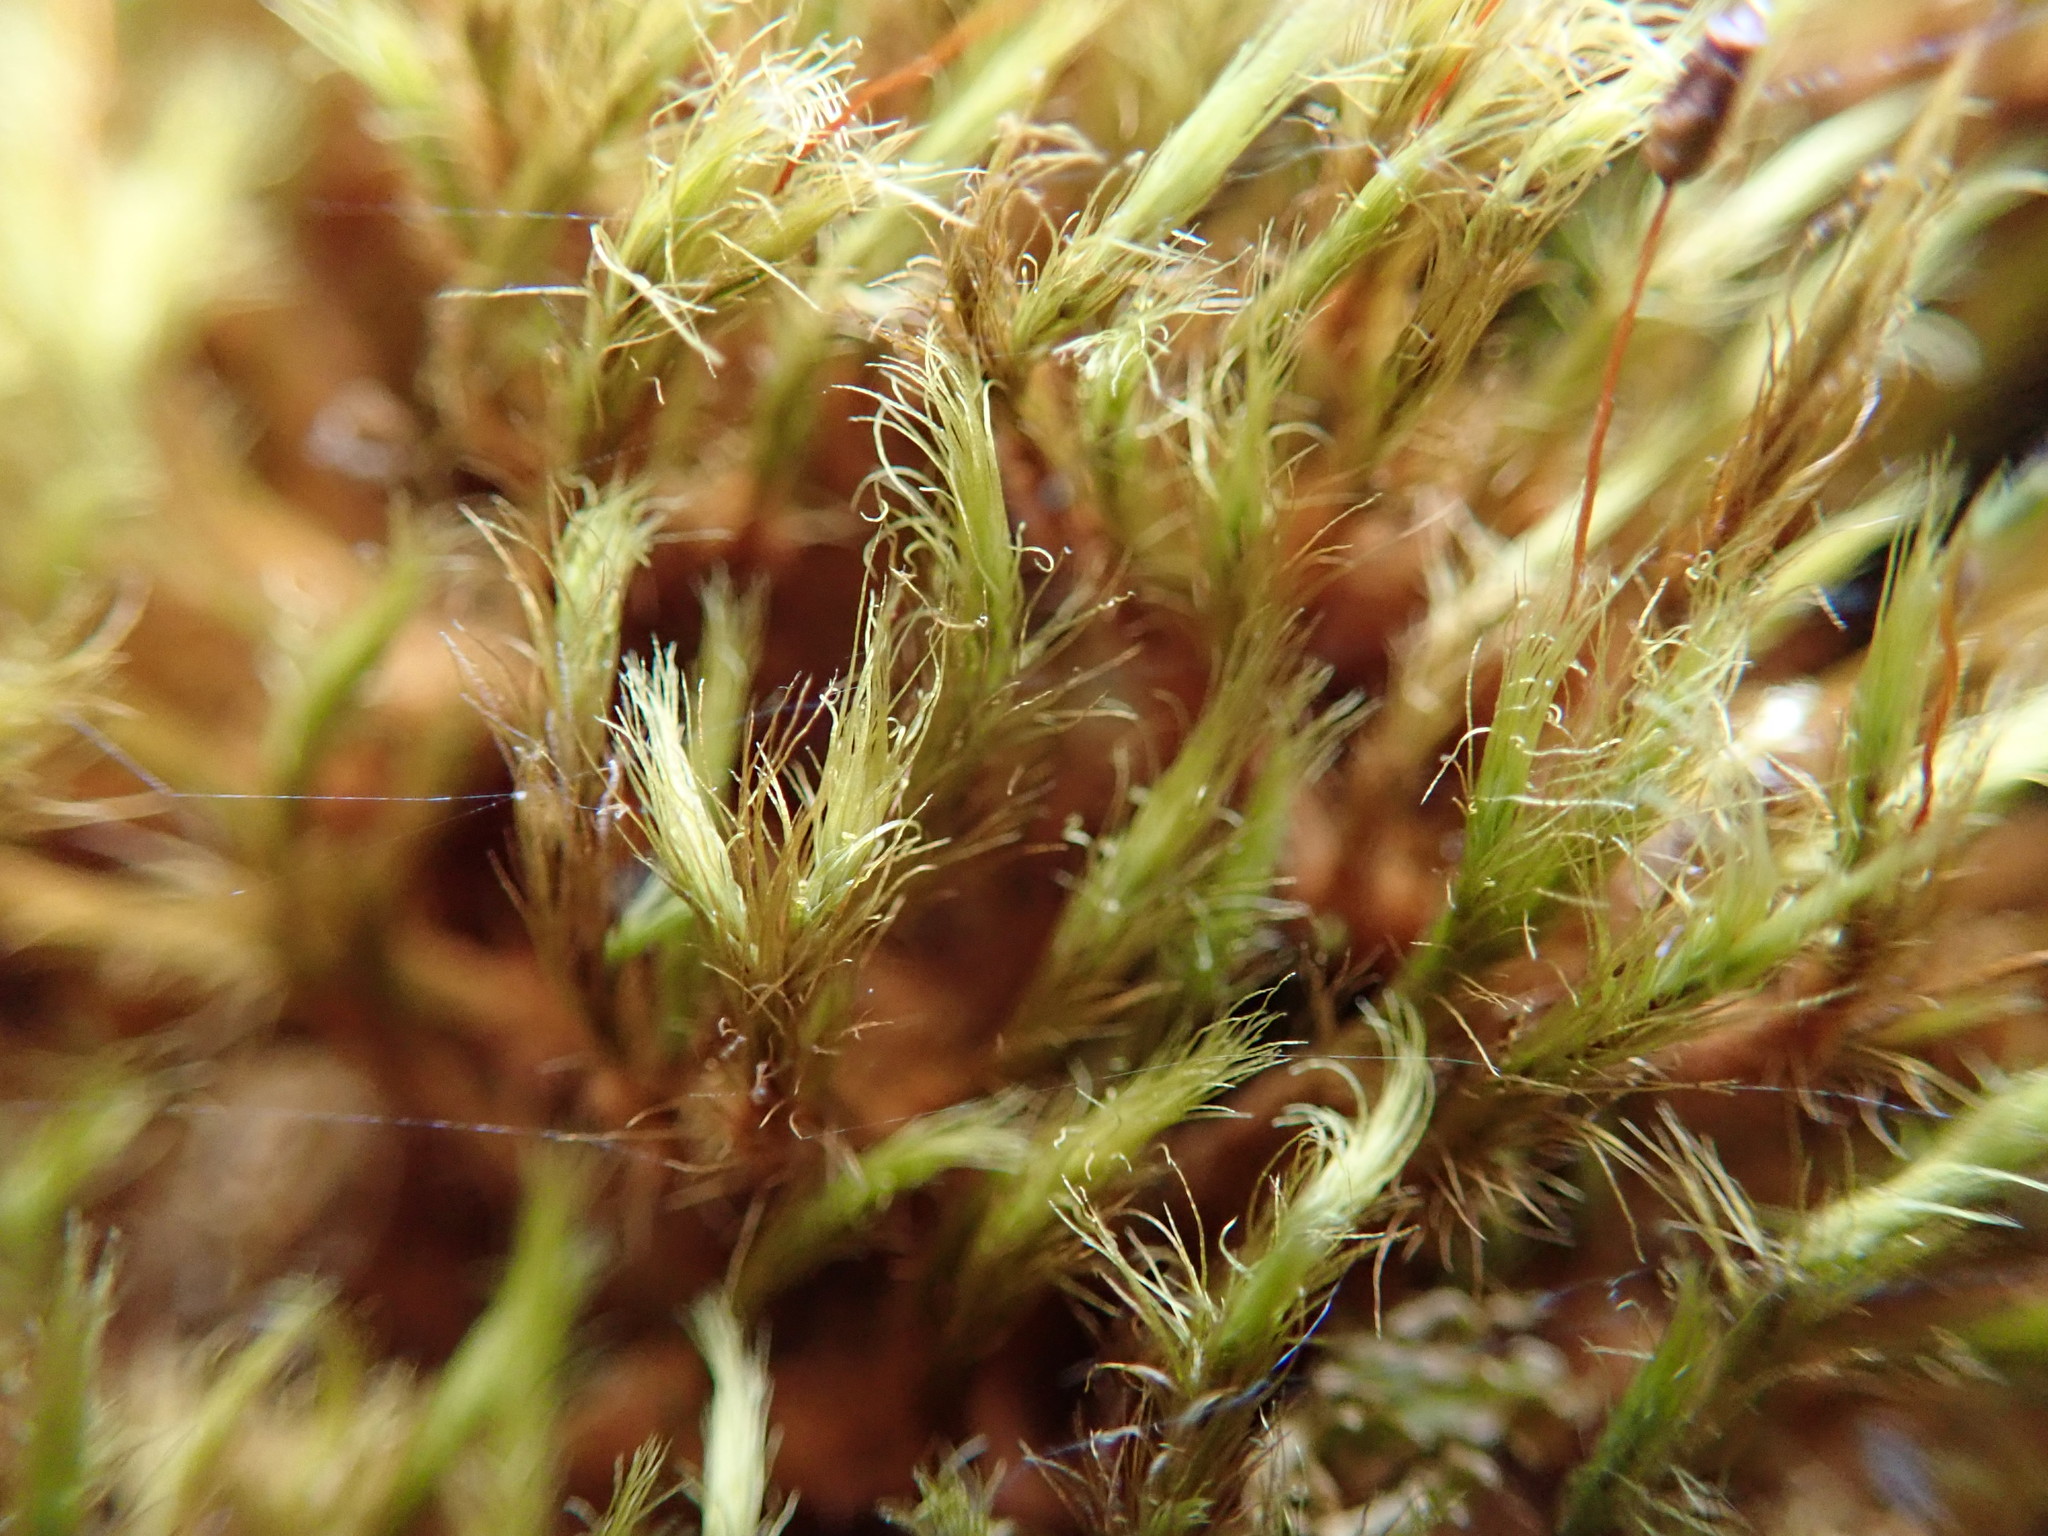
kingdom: Plantae
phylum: Bryophyta
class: Bryopsida
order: Bartramiales
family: Bartramiaceae
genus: Anacolia
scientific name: Anacolia menziesii
